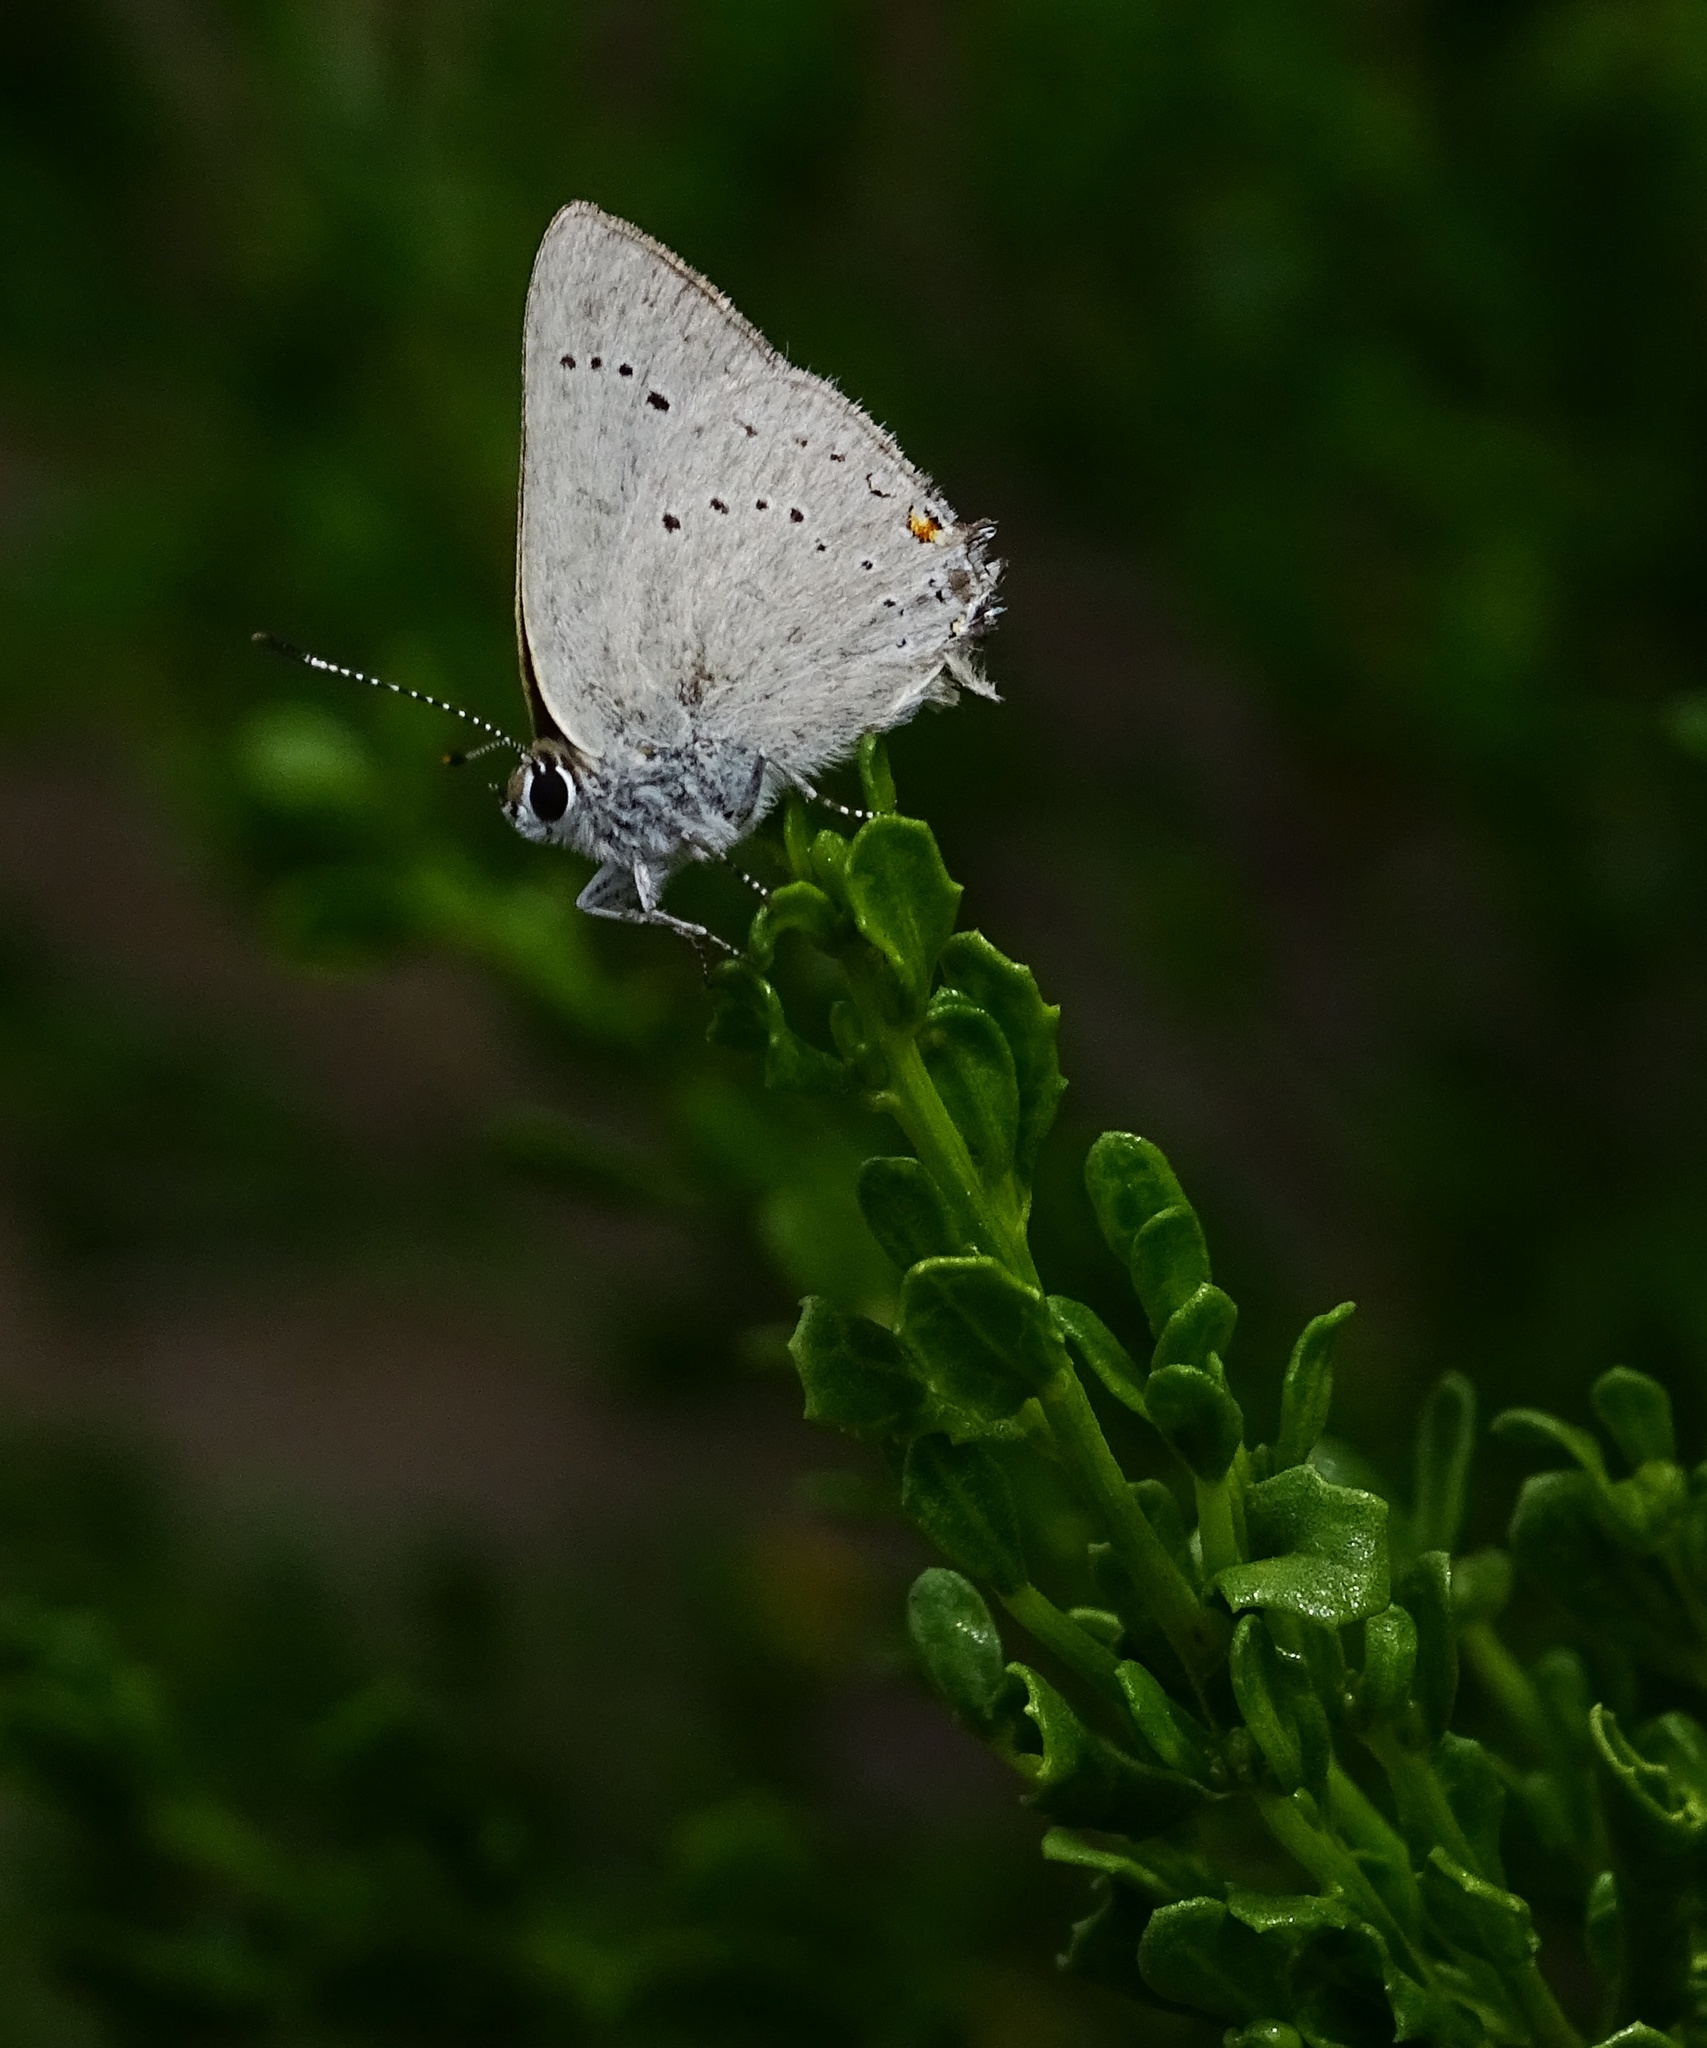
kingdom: Animalia
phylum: Arthropoda
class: Insecta
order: Lepidoptera
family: Lycaenidae
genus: Strymon
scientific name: Strymon sylvinus
